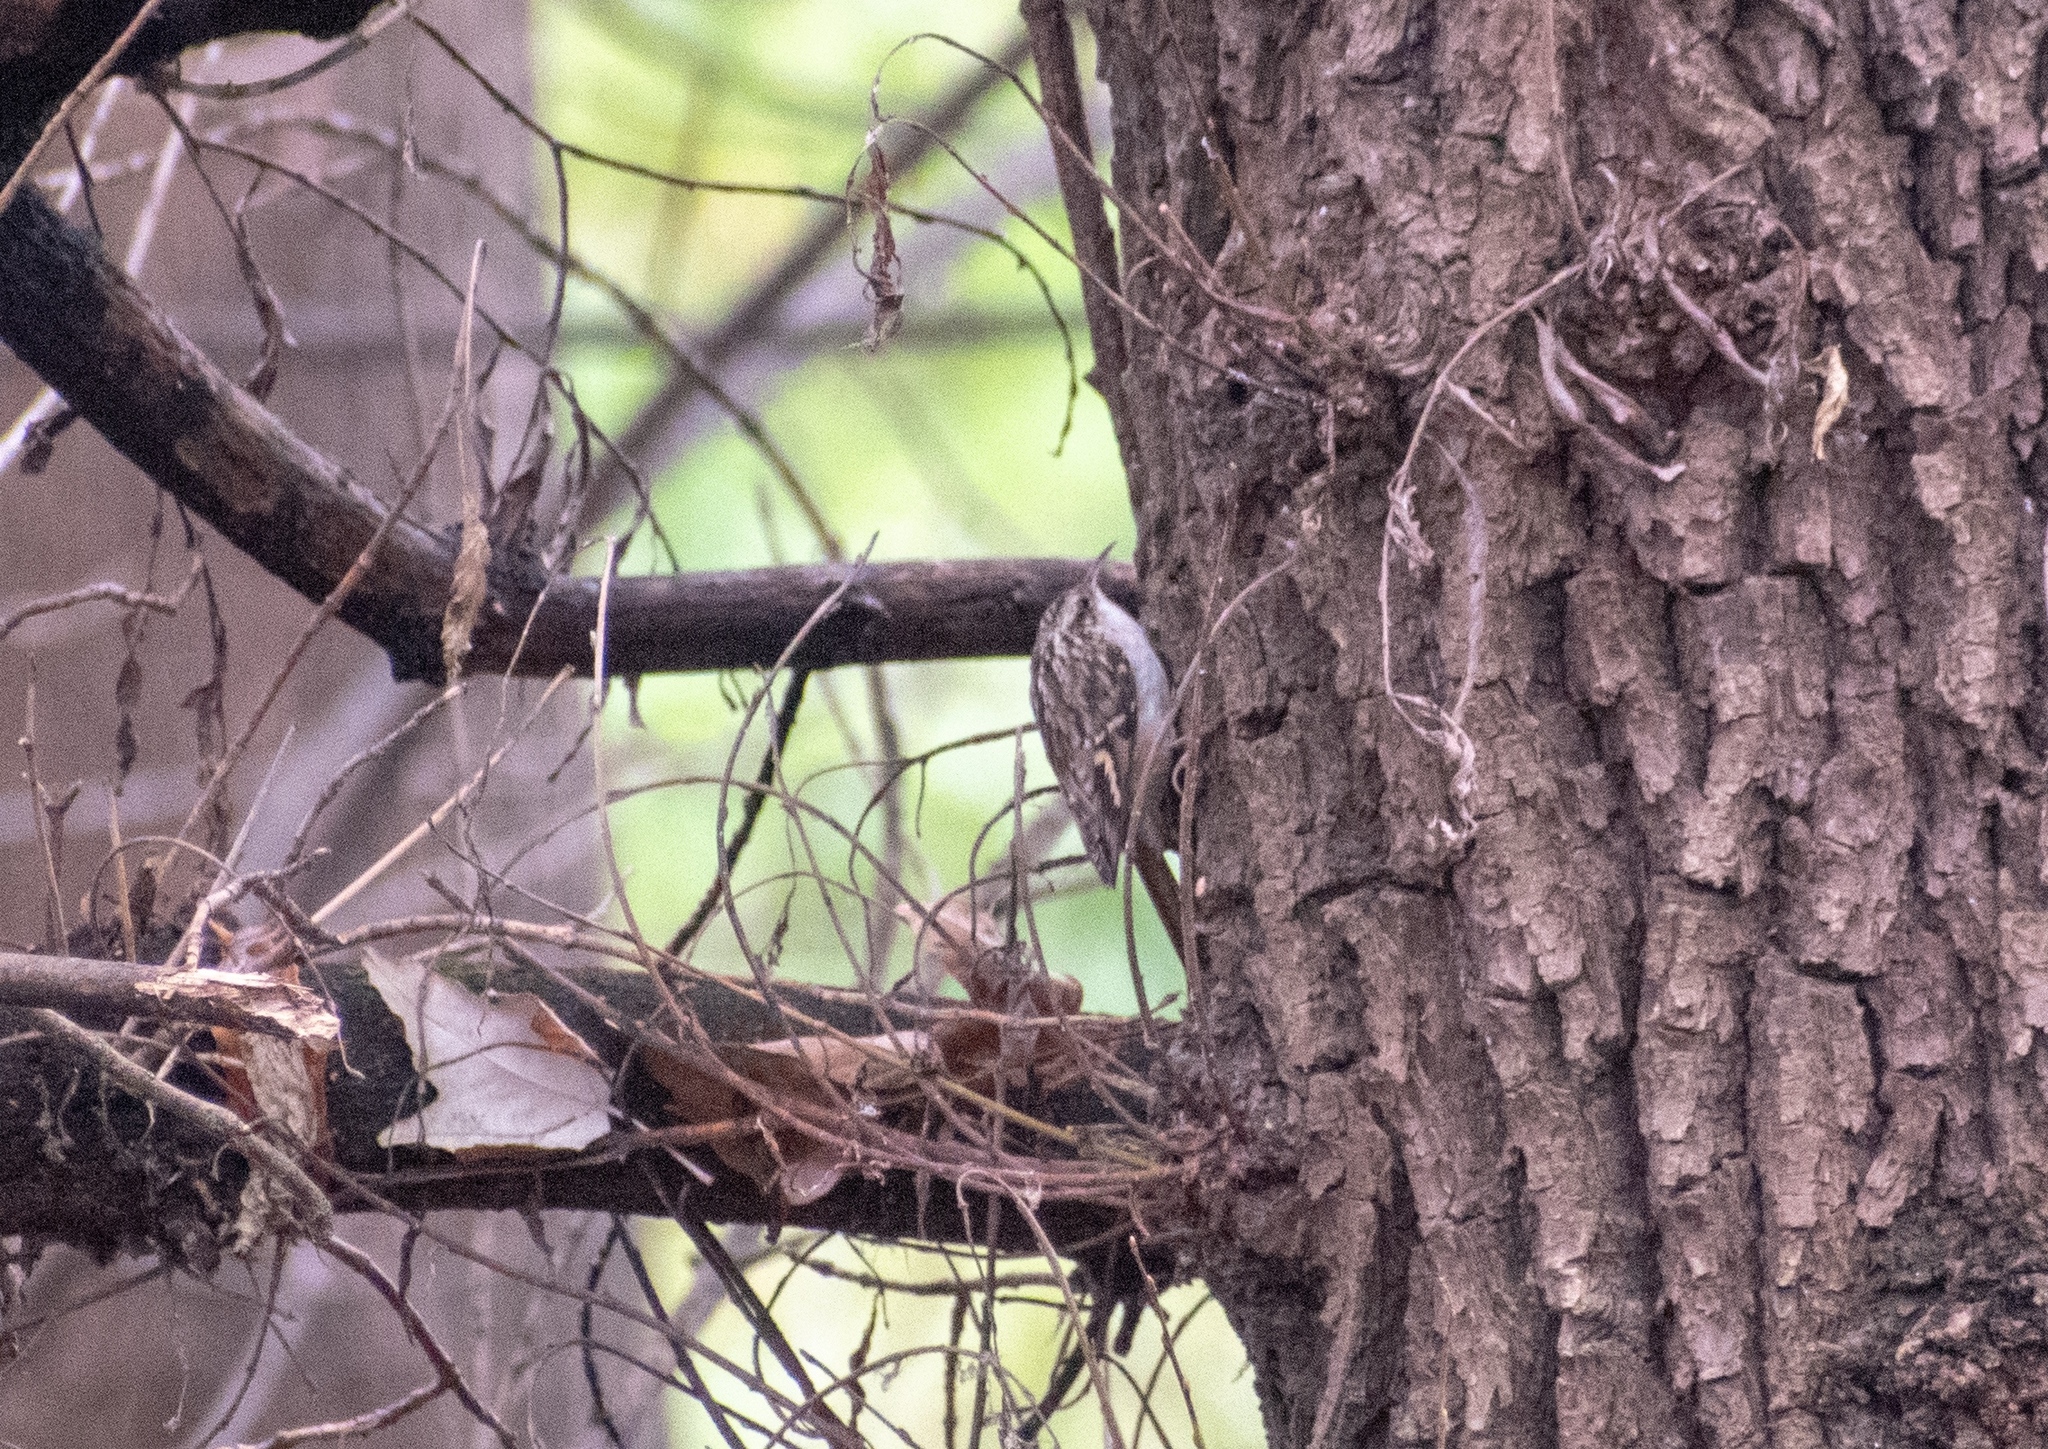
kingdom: Animalia
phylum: Chordata
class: Aves
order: Passeriformes
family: Certhiidae
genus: Certhia
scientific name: Certhia brachydactyla
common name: Short-toed treecreeper
